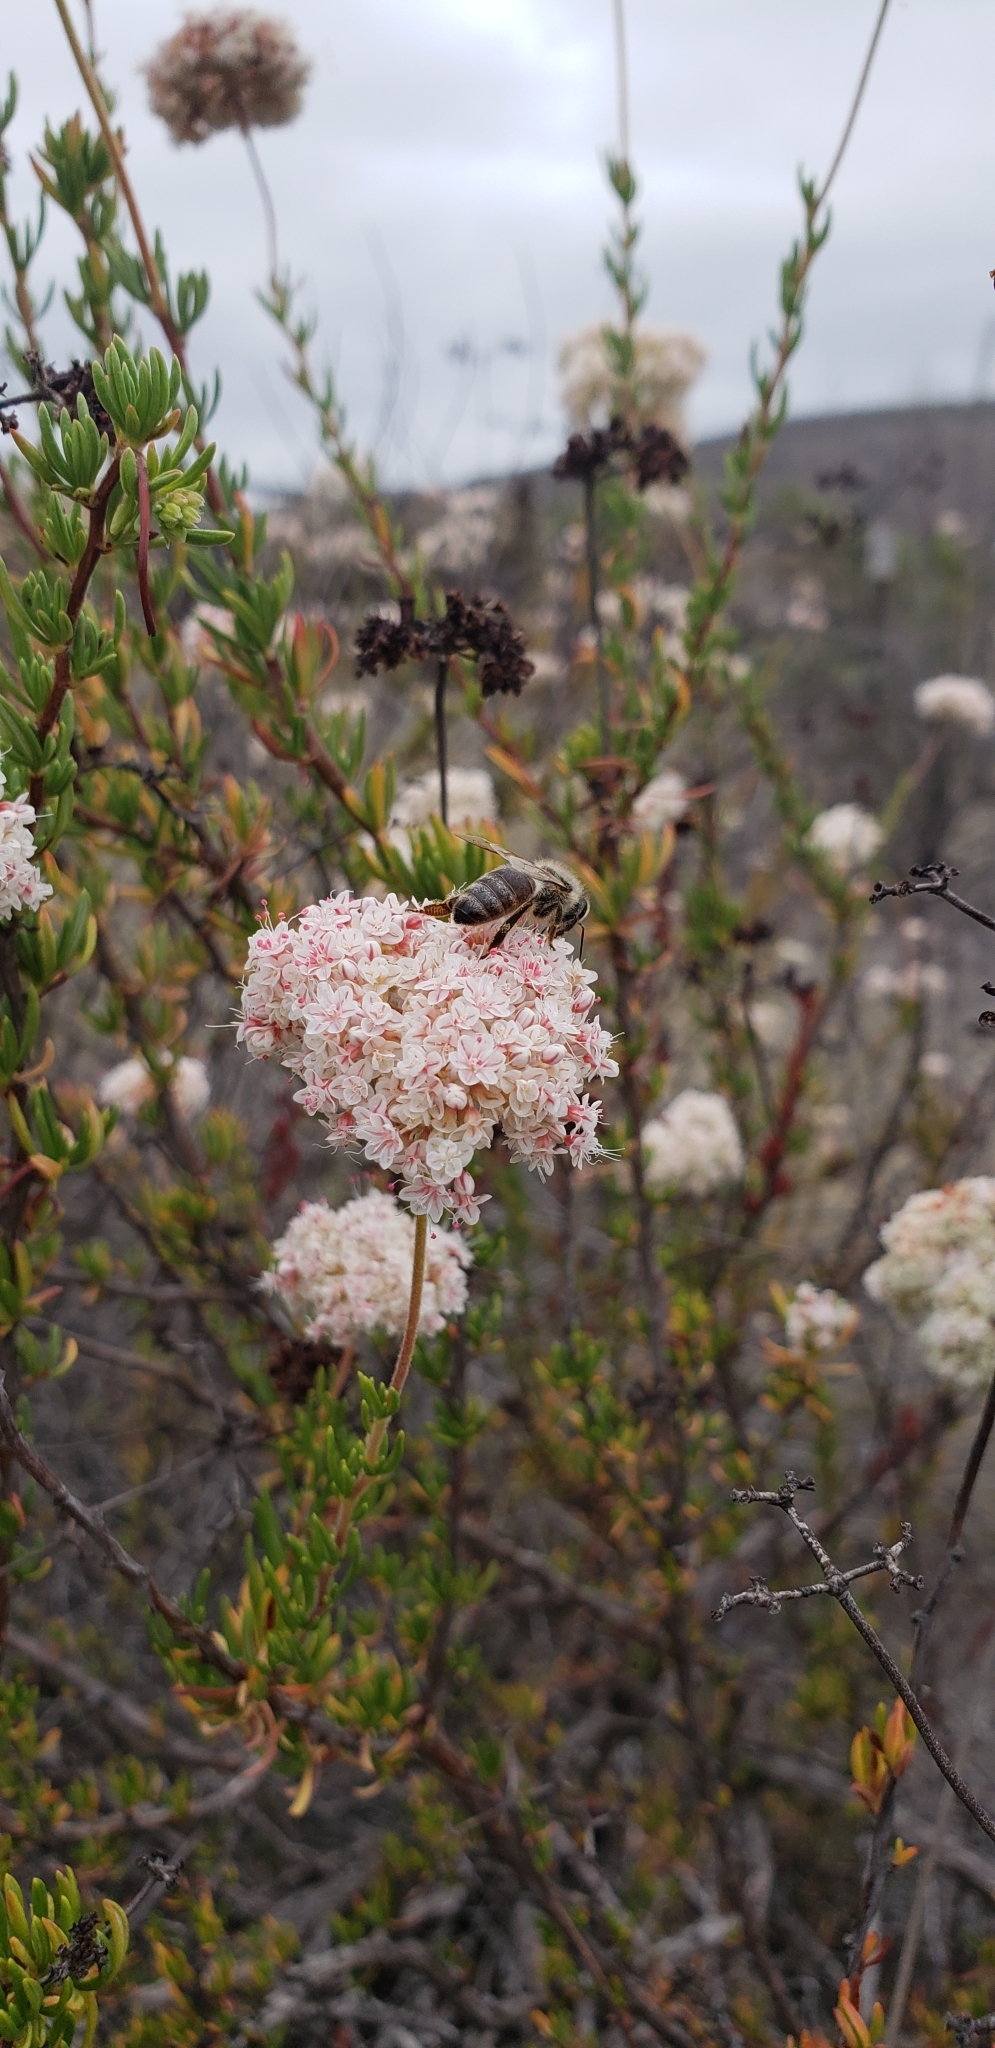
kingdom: Animalia
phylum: Arthropoda
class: Insecta
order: Hymenoptera
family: Apidae
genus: Apis
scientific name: Apis mellifera
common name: Honey bee
